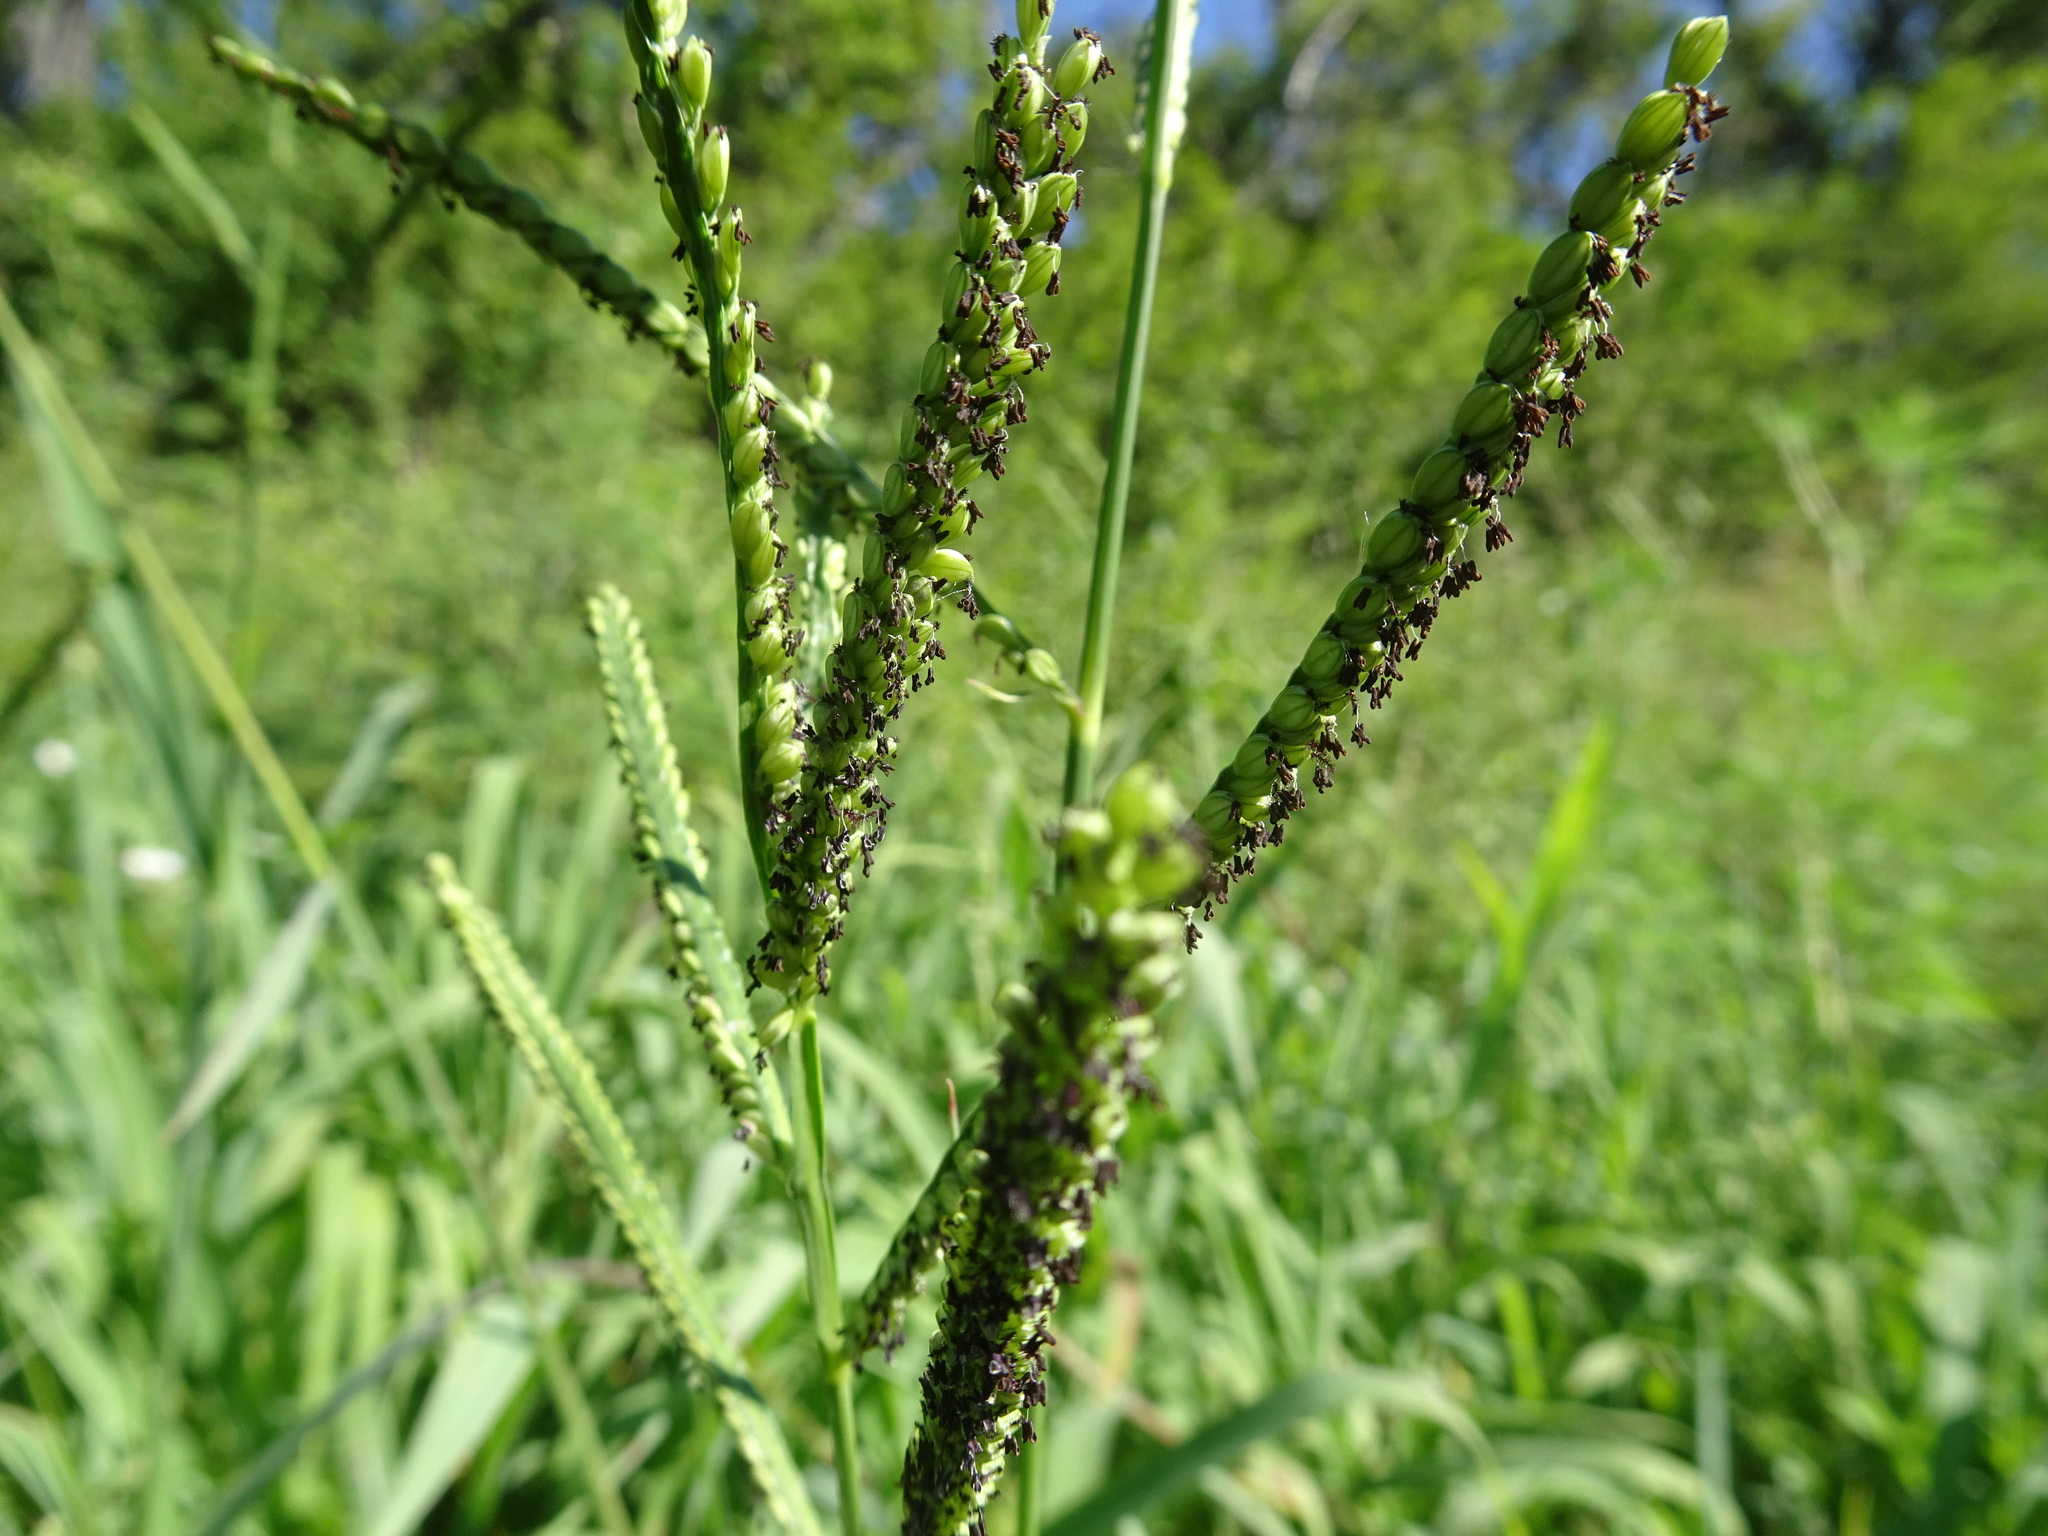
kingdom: Plantae
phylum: Tracheophyta
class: Liliopsida
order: Poales
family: Poaceae
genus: Paspalum
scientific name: Paspalum pubiflorum
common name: Hairy-seed paspalum
